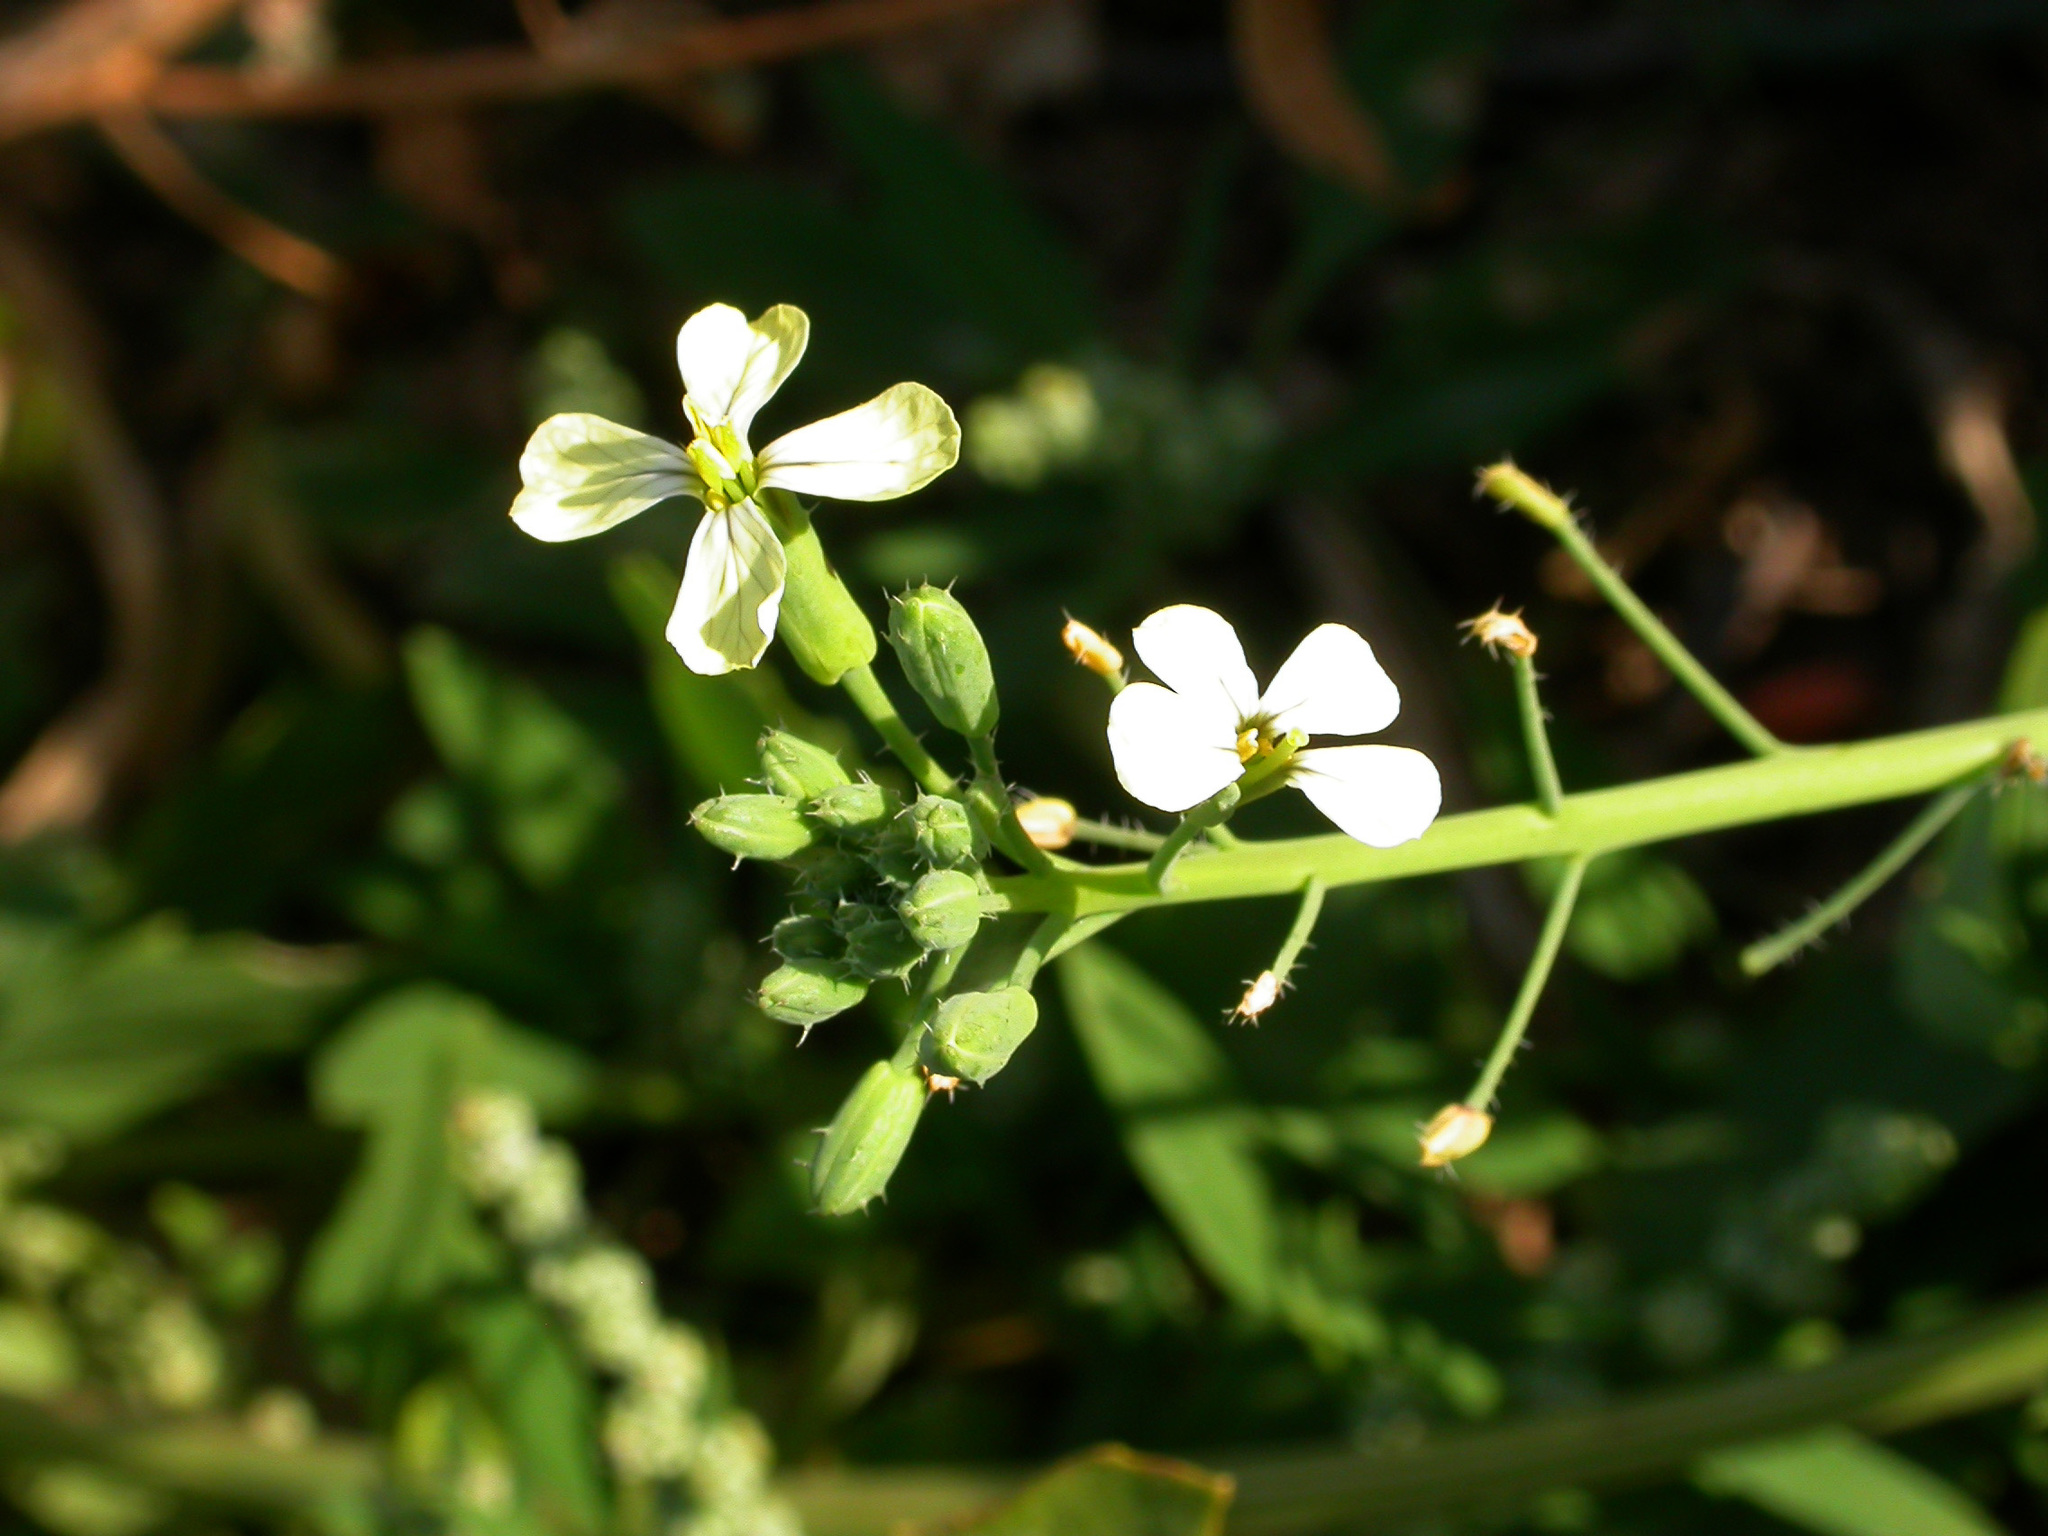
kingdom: Plantae
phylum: Tracheophyta
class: Magnoliopsida
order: Brassicales
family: Brassicaceae
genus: Raphanus
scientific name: Raphanus raphanistrum
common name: Wild radish
